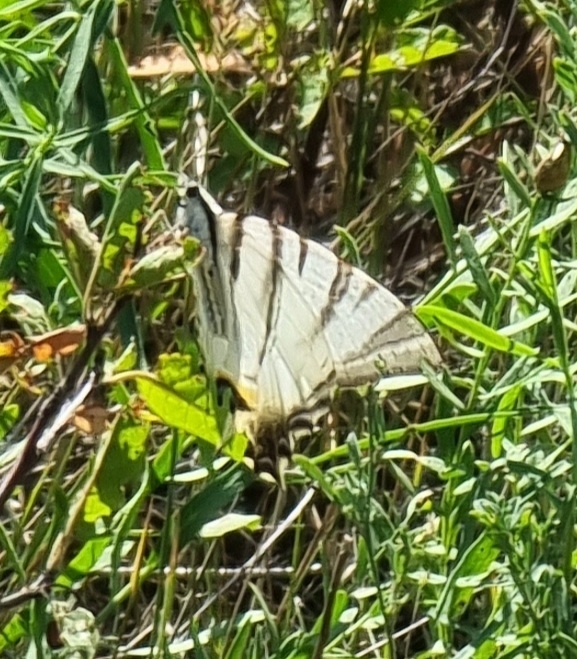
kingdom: Animalia
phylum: Arthropoda
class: Insecta
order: Lepidoptera
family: Papilionidae
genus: Iphiclides
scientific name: Iphiclides podalirius
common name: Scarce swallowtail
